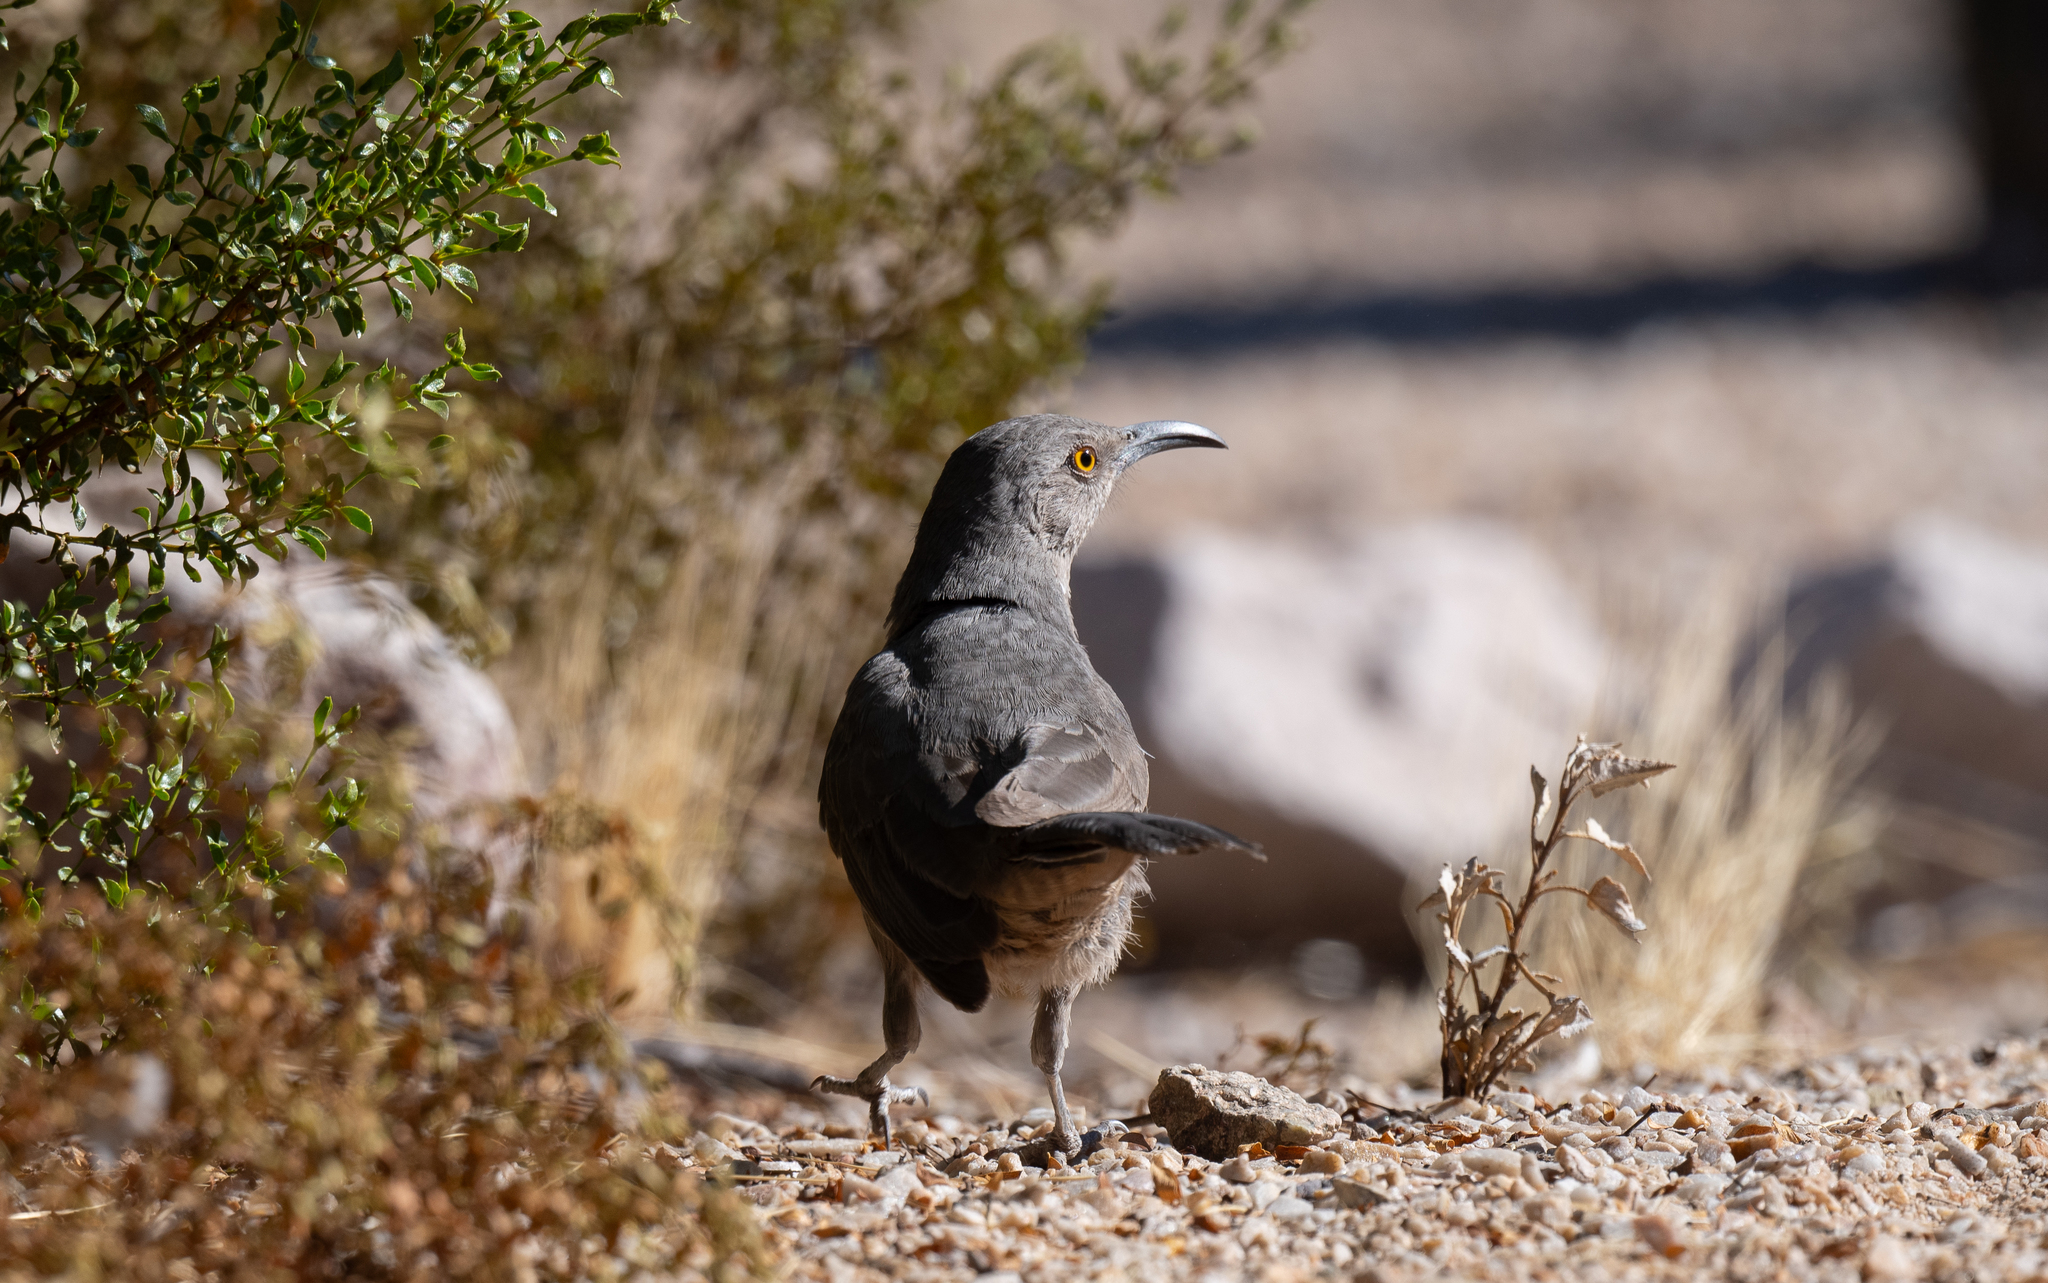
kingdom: Animalia
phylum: Chordata
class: Aves
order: Passeriformes
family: Mimidae
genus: Toxostoma
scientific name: Toxostoma curvirostre
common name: Curve-billed thrasher
